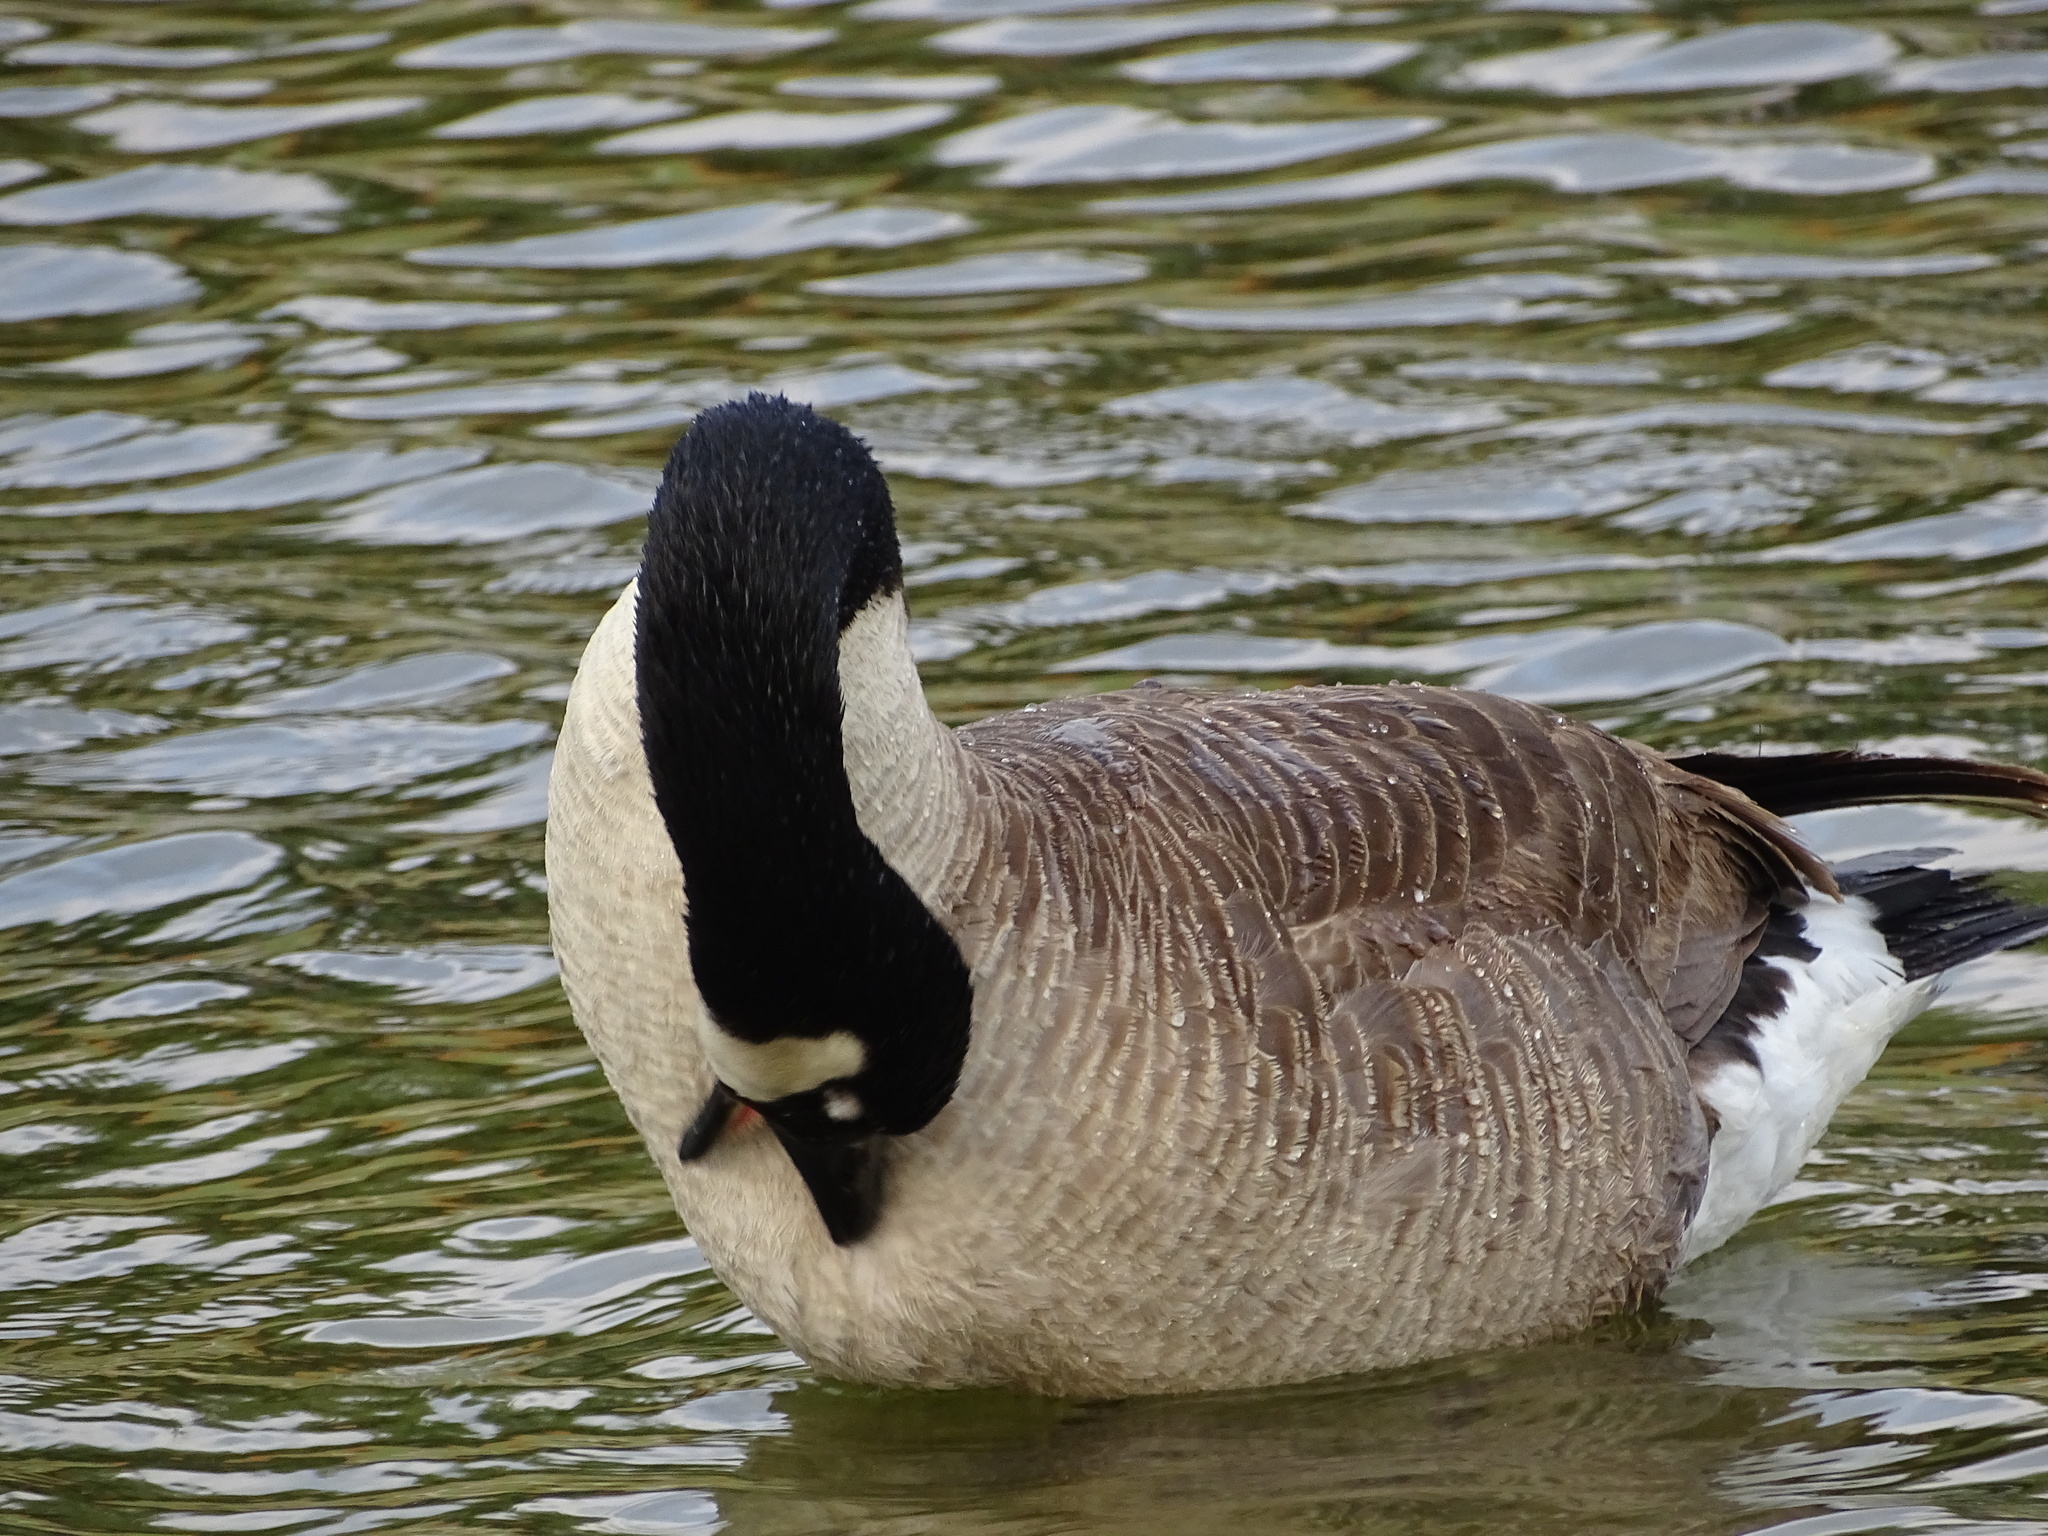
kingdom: Animalia
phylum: Chordata
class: Aves
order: Anseriformes
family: Anatidae
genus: Branta
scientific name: Branta canadensis
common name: Canada goose
